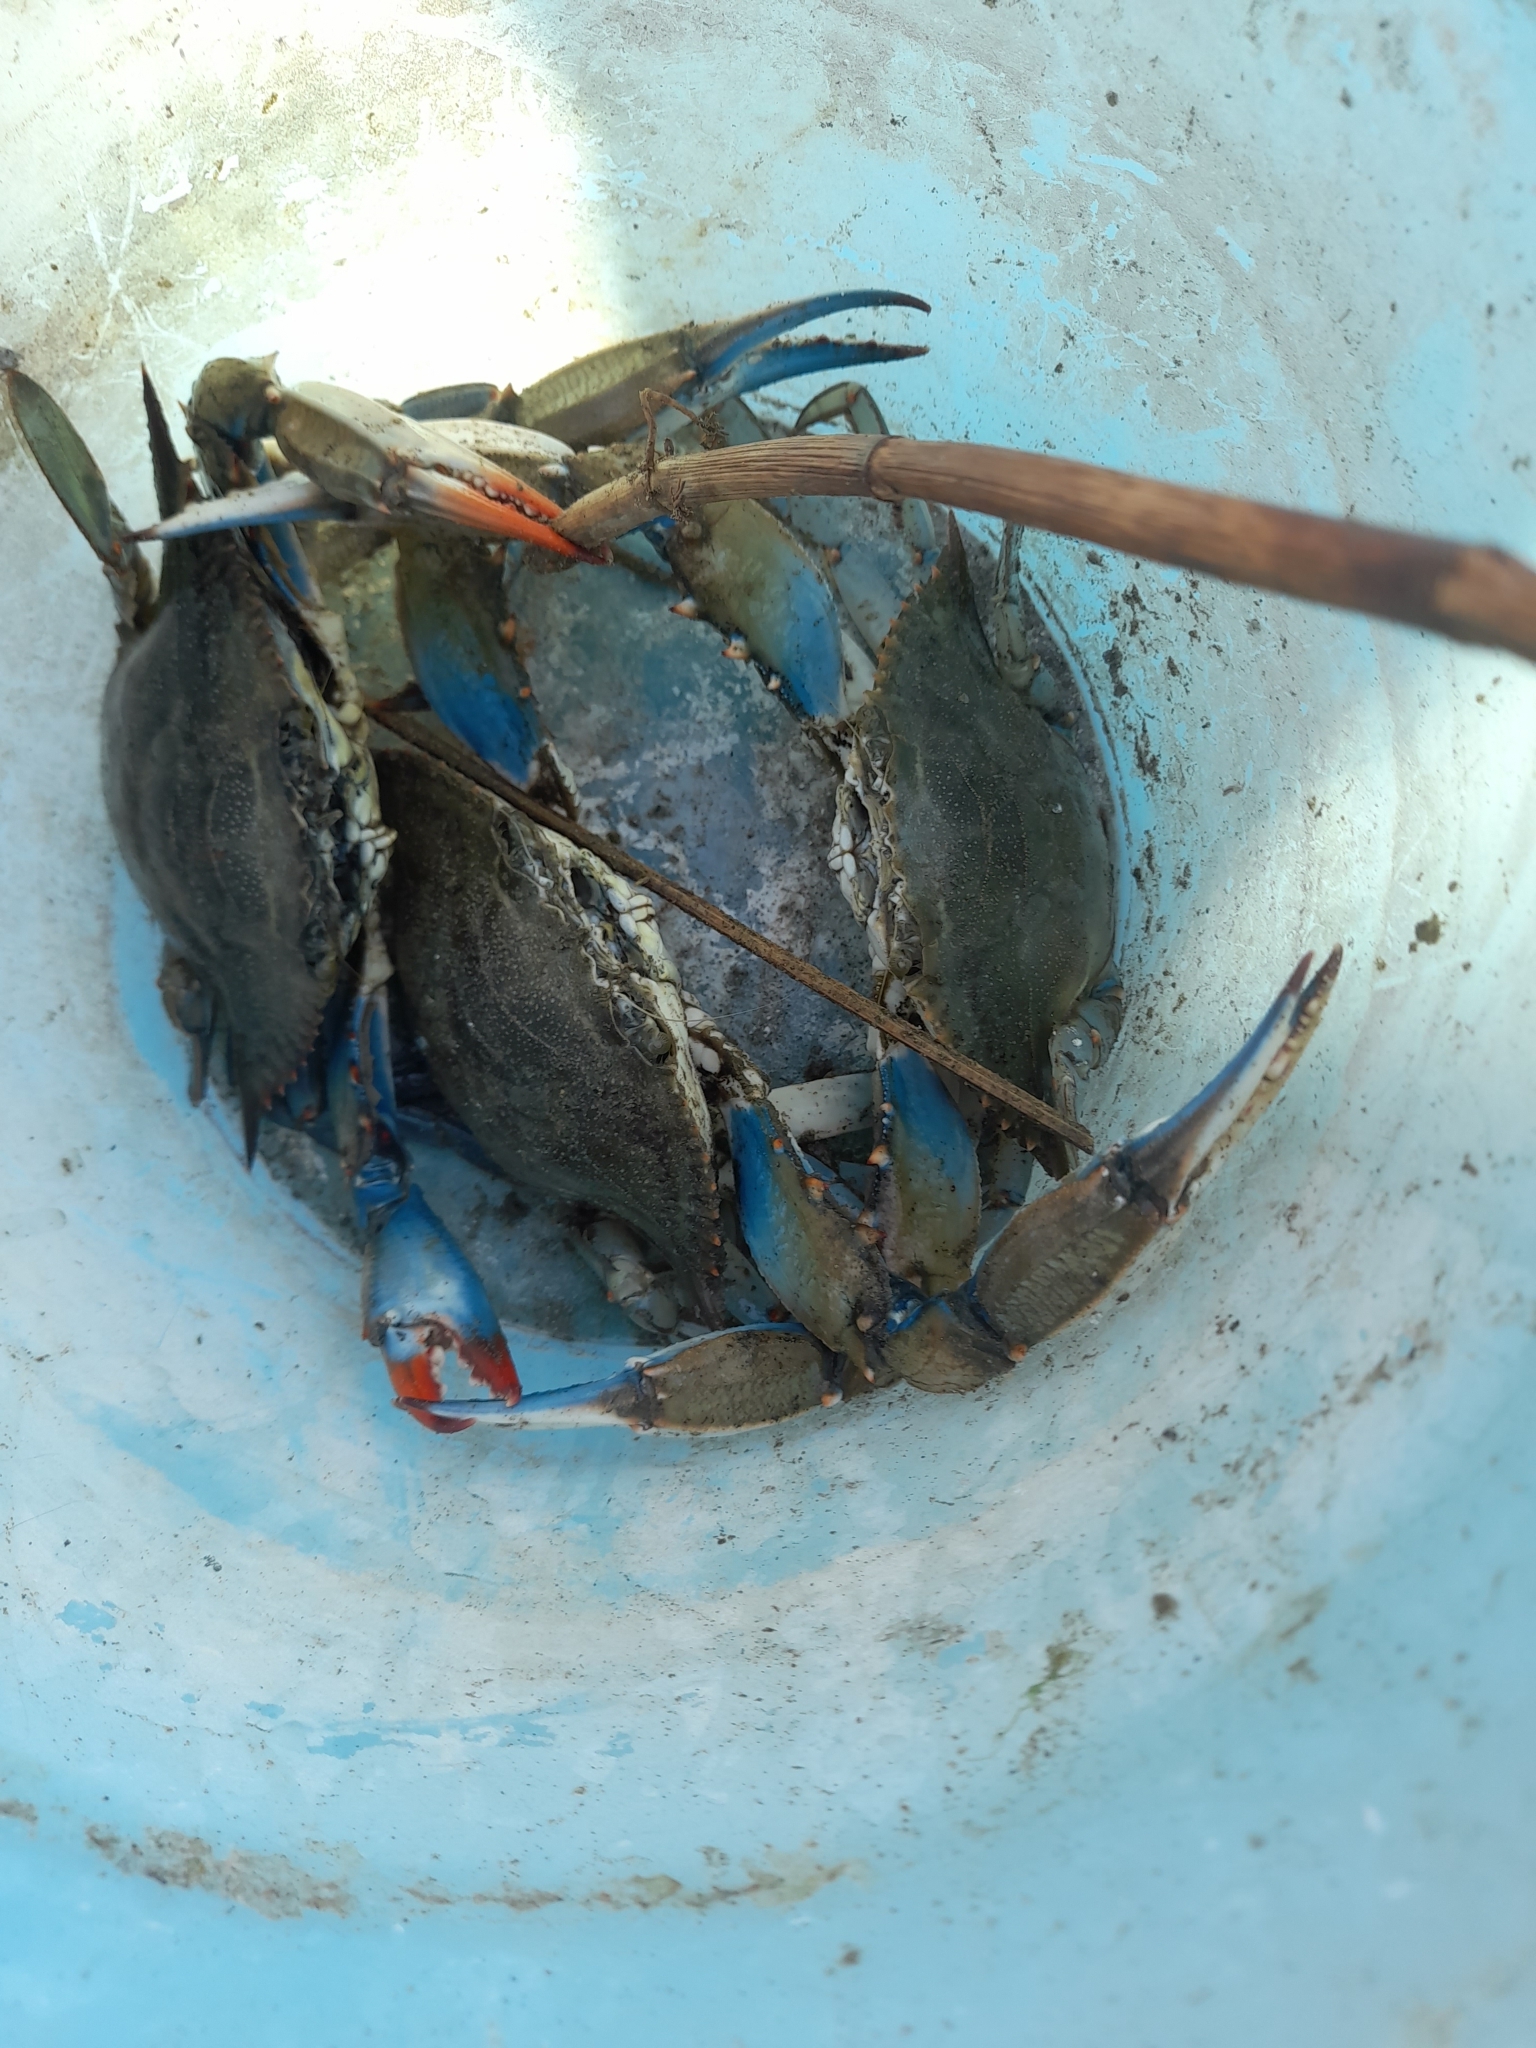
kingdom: Animalia
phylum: Arthropoda
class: Malacostraca
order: Decapoda
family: Portunidae
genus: Callinectes
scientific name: Callinectes sapidus
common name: Blue crab
